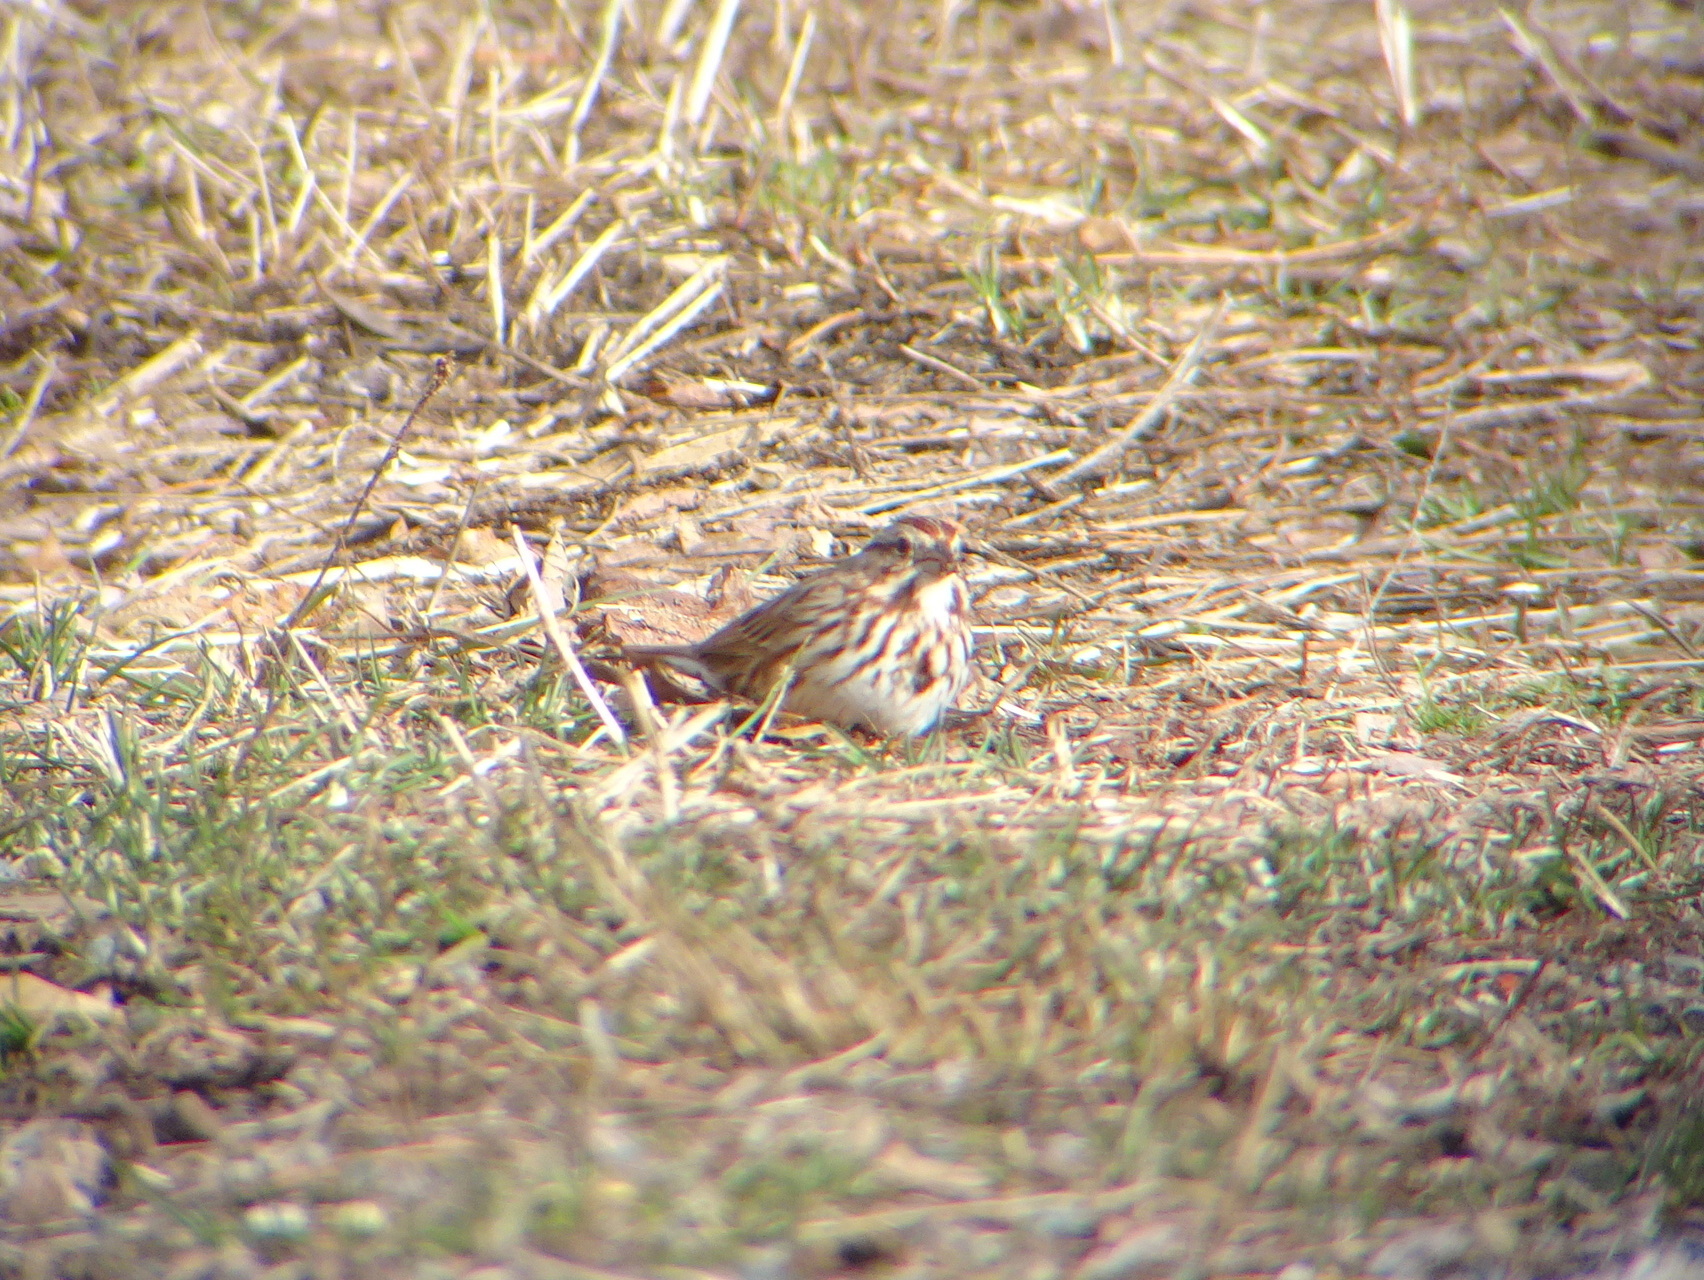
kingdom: Animalia
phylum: Chordata
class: Aves
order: Passeriformes
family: Passerellidae
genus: Melospiza
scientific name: Melospiza melodia
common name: Song sparrow
